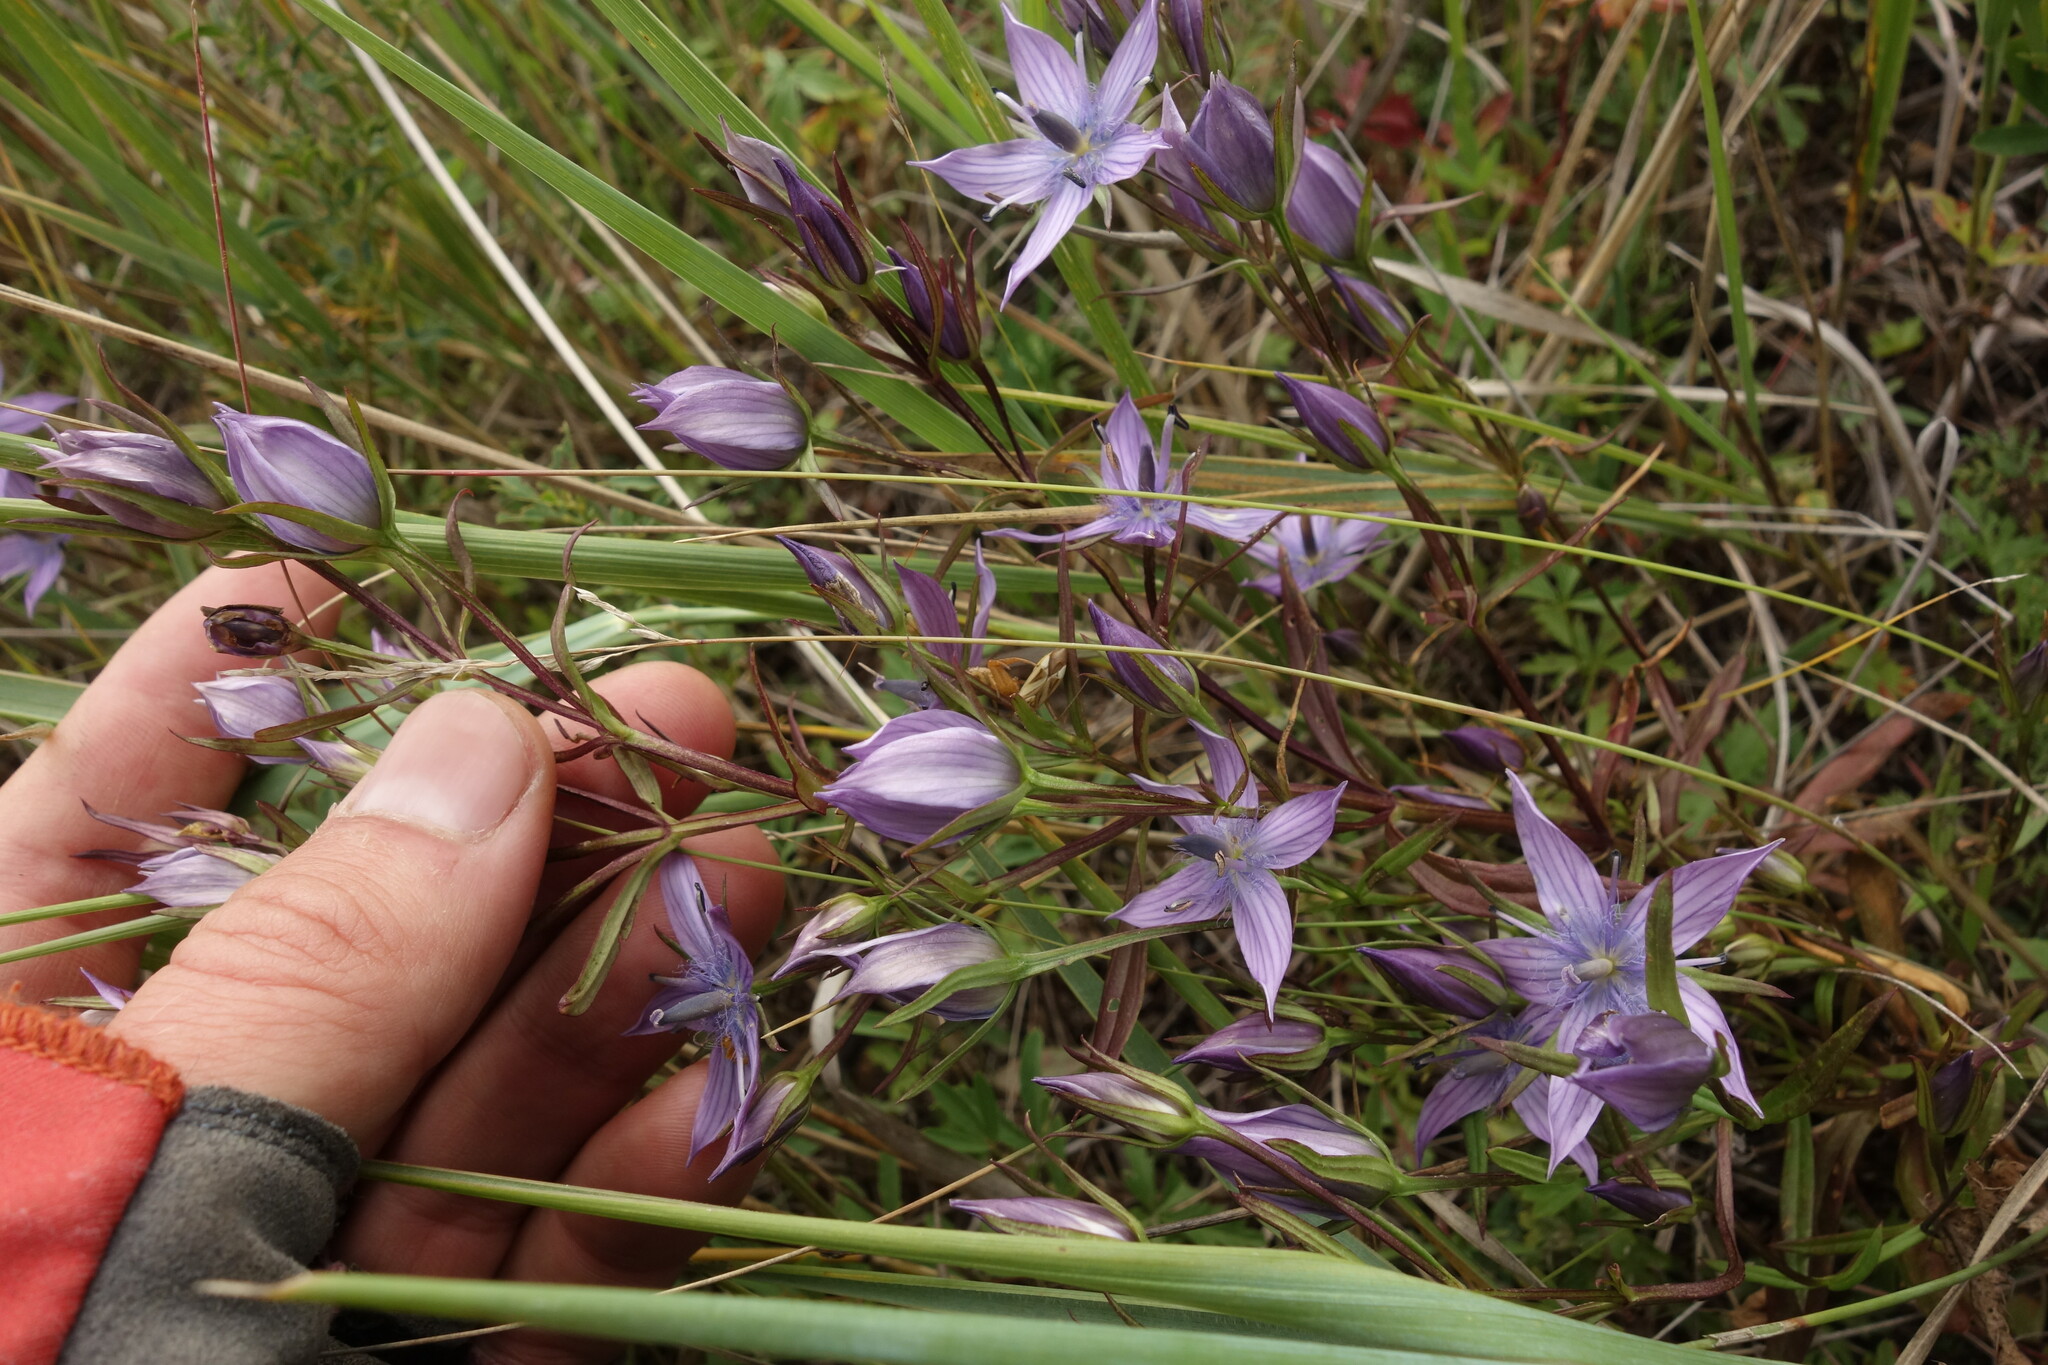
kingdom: Plantae
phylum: Tracheophyta
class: Magnoliopsida
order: Gentianales
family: Gentianaceae
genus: Lomatogonium
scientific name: Lomatogonium rotatum
